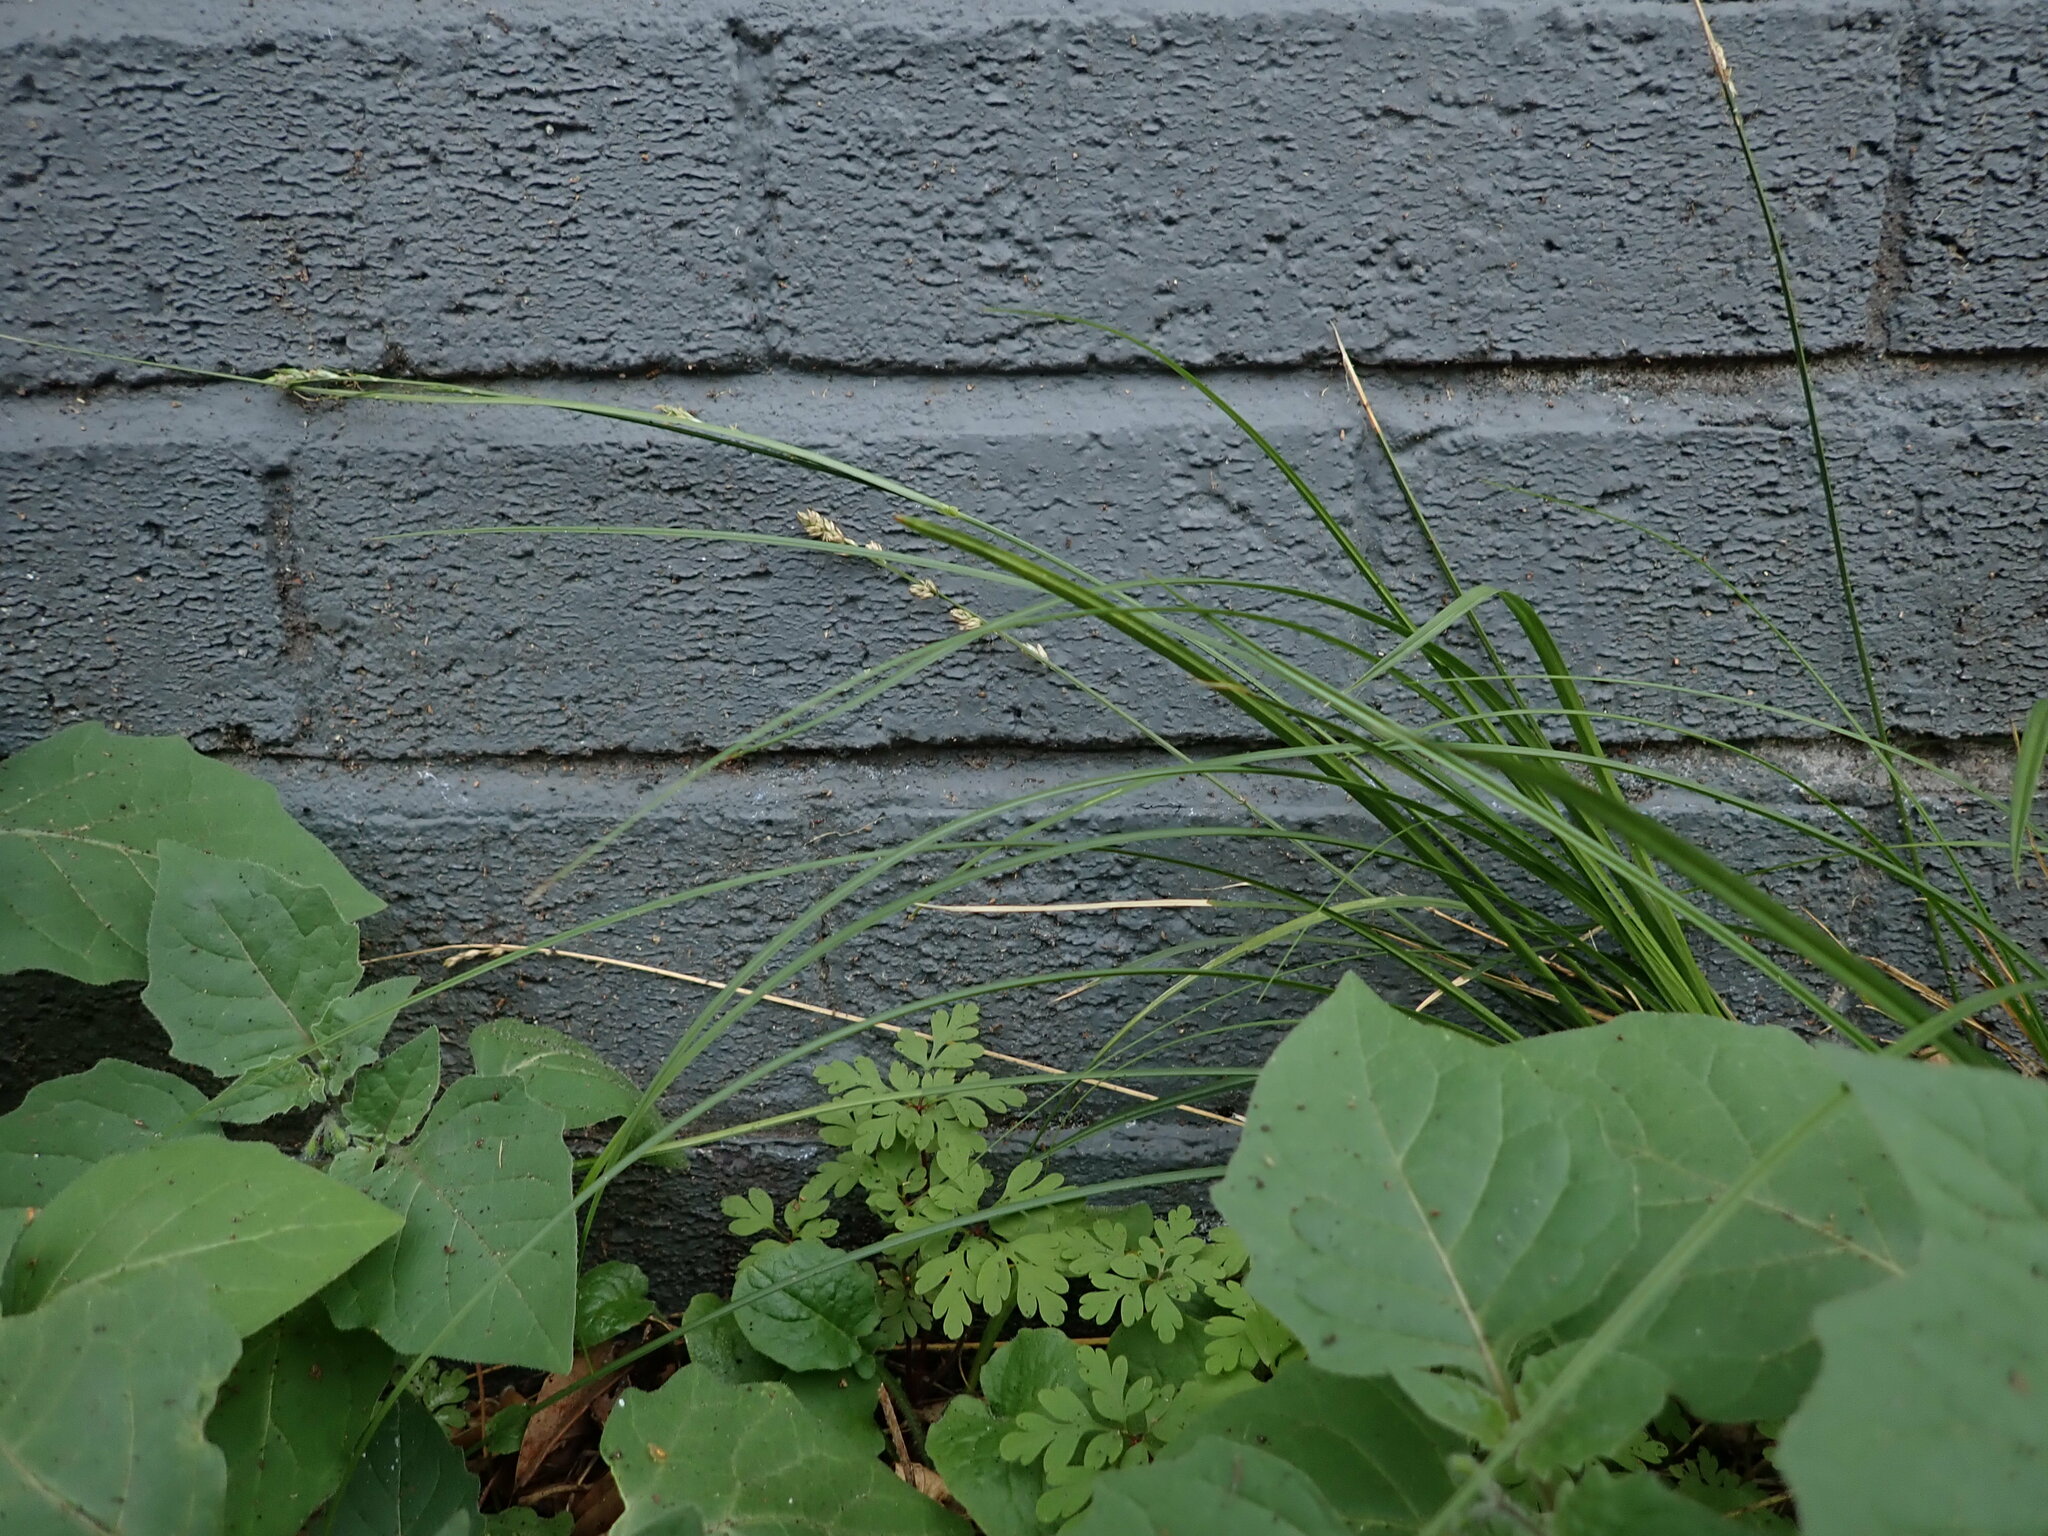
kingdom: Plantae
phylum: Tracheophyta
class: Liliopsida
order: Poales
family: Cyperaceae
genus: Carex
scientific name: Carex divulsa
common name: Grassland sedge
